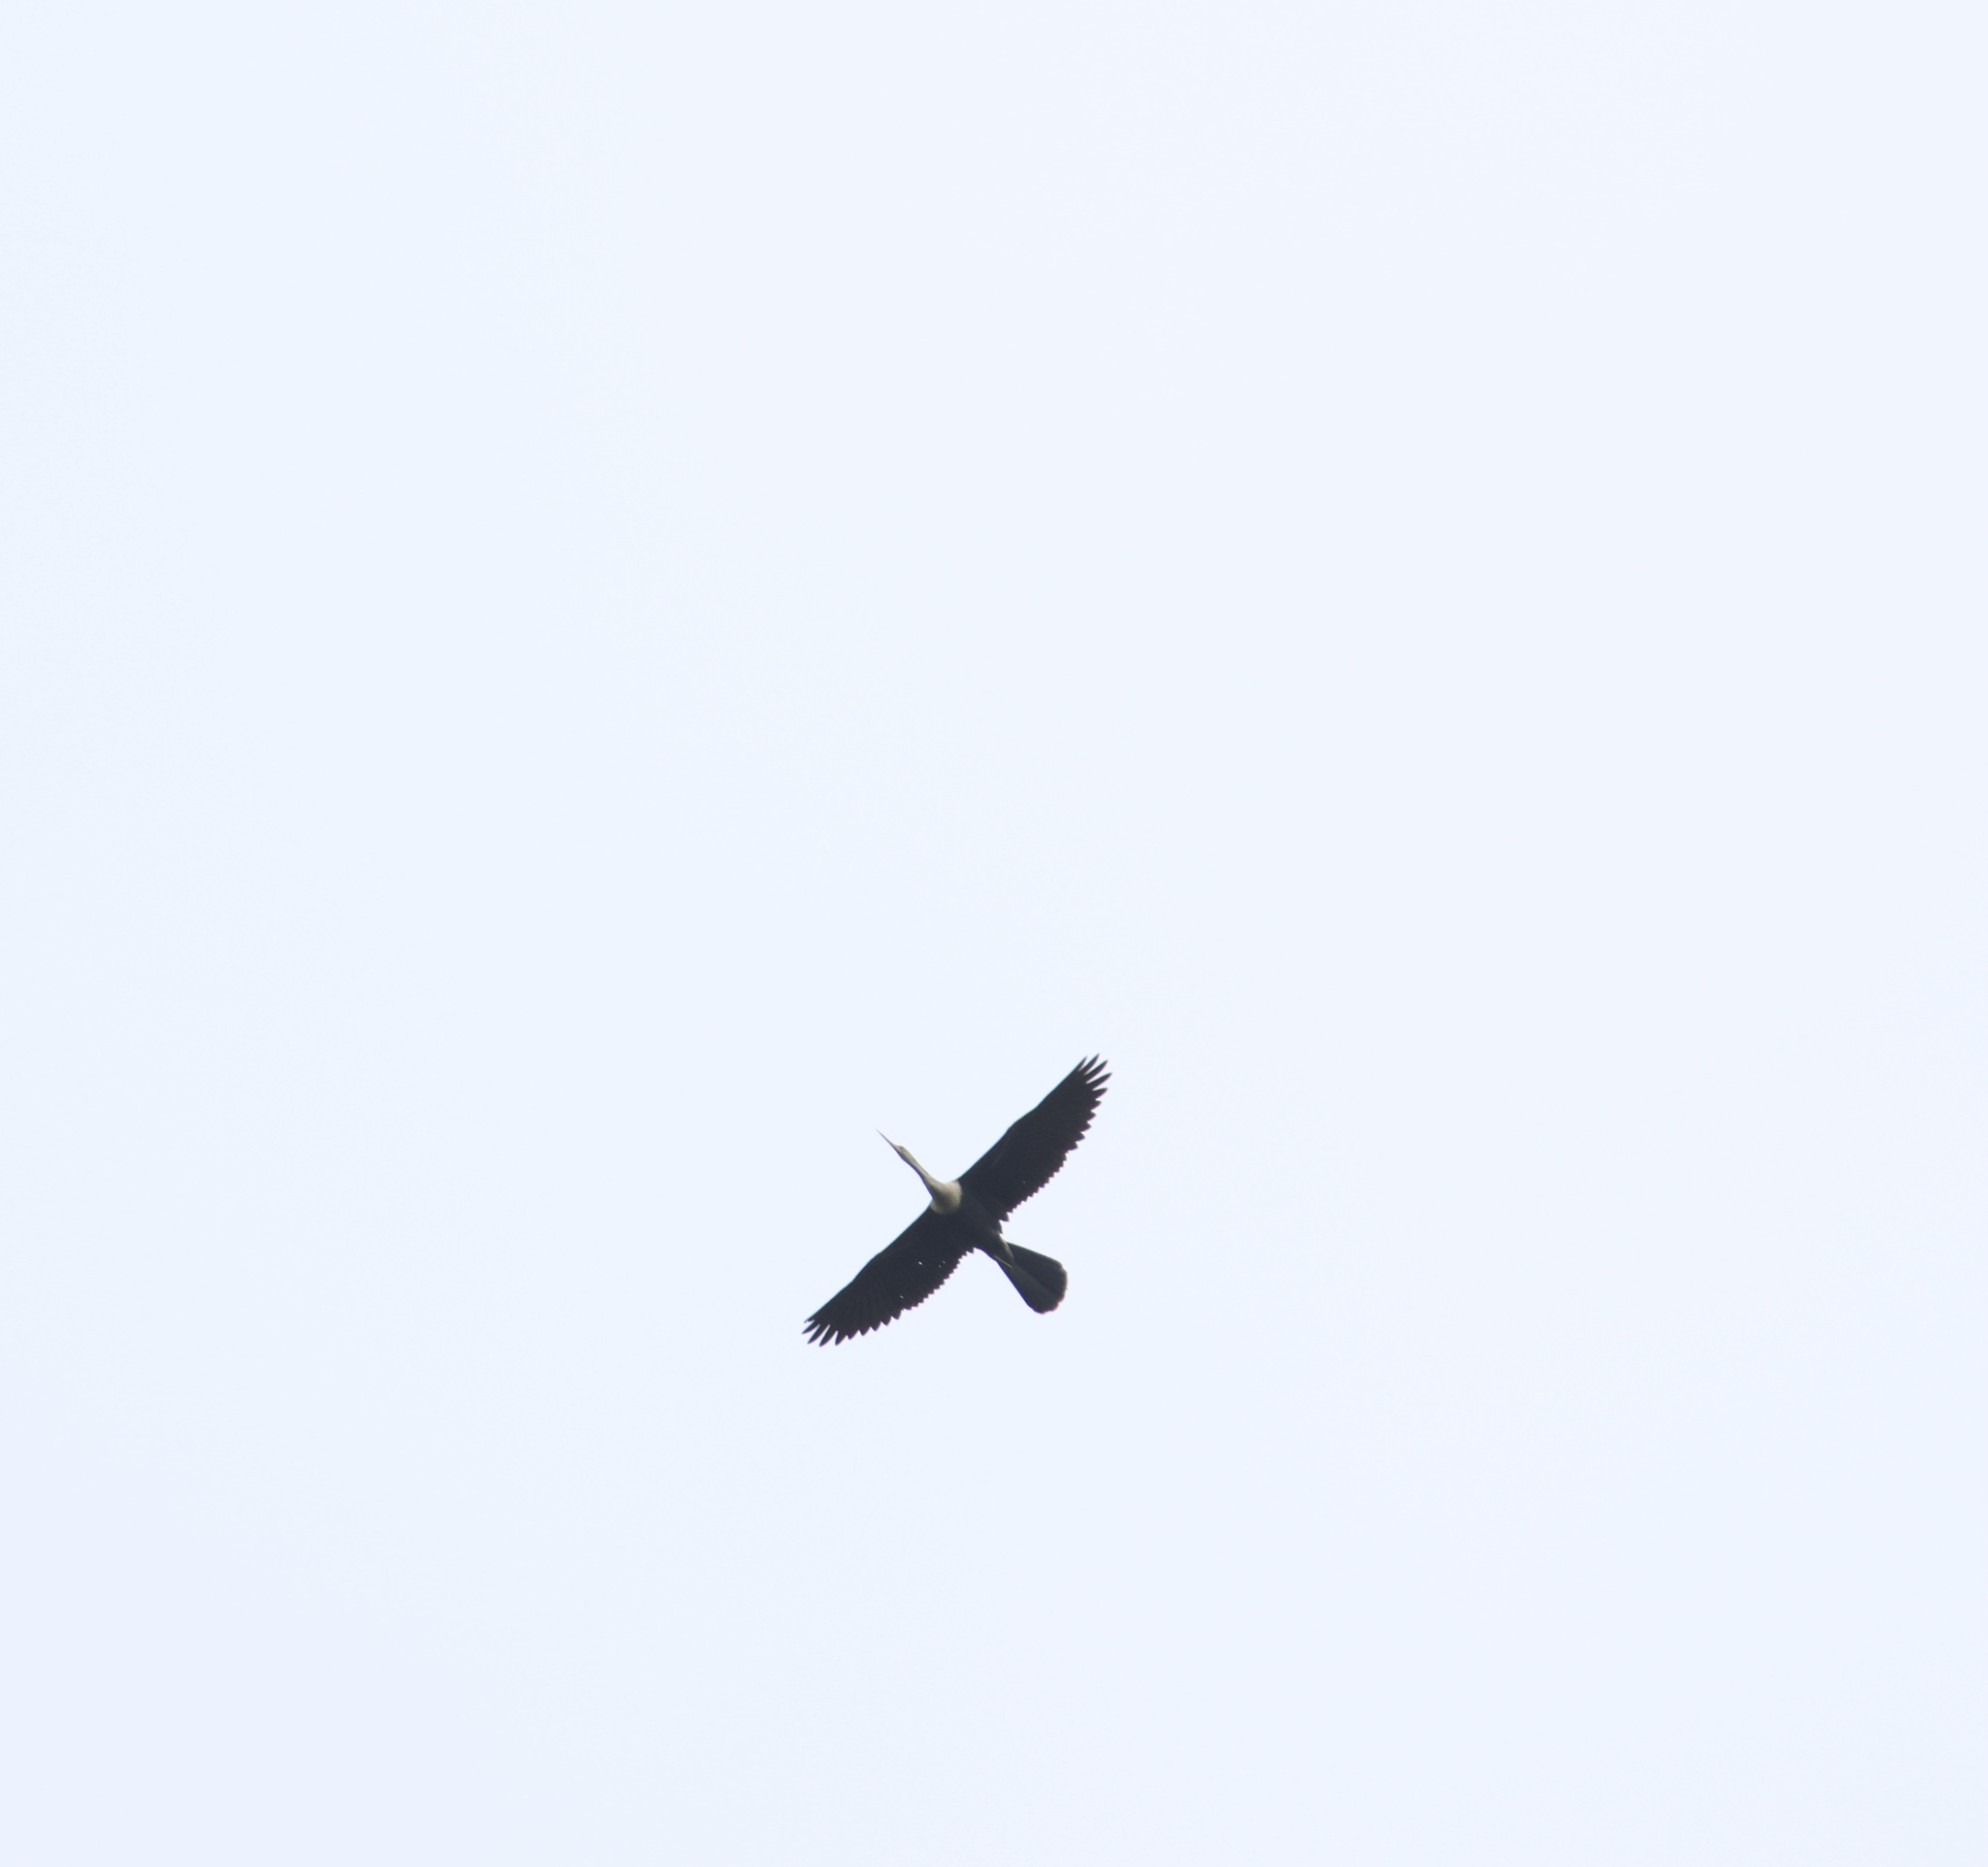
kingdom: Animalia
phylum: Chordata
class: Aves
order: Suliformes
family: Anhingidae
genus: Anhinga
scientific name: Anhinga anhinga
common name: Anhinga
